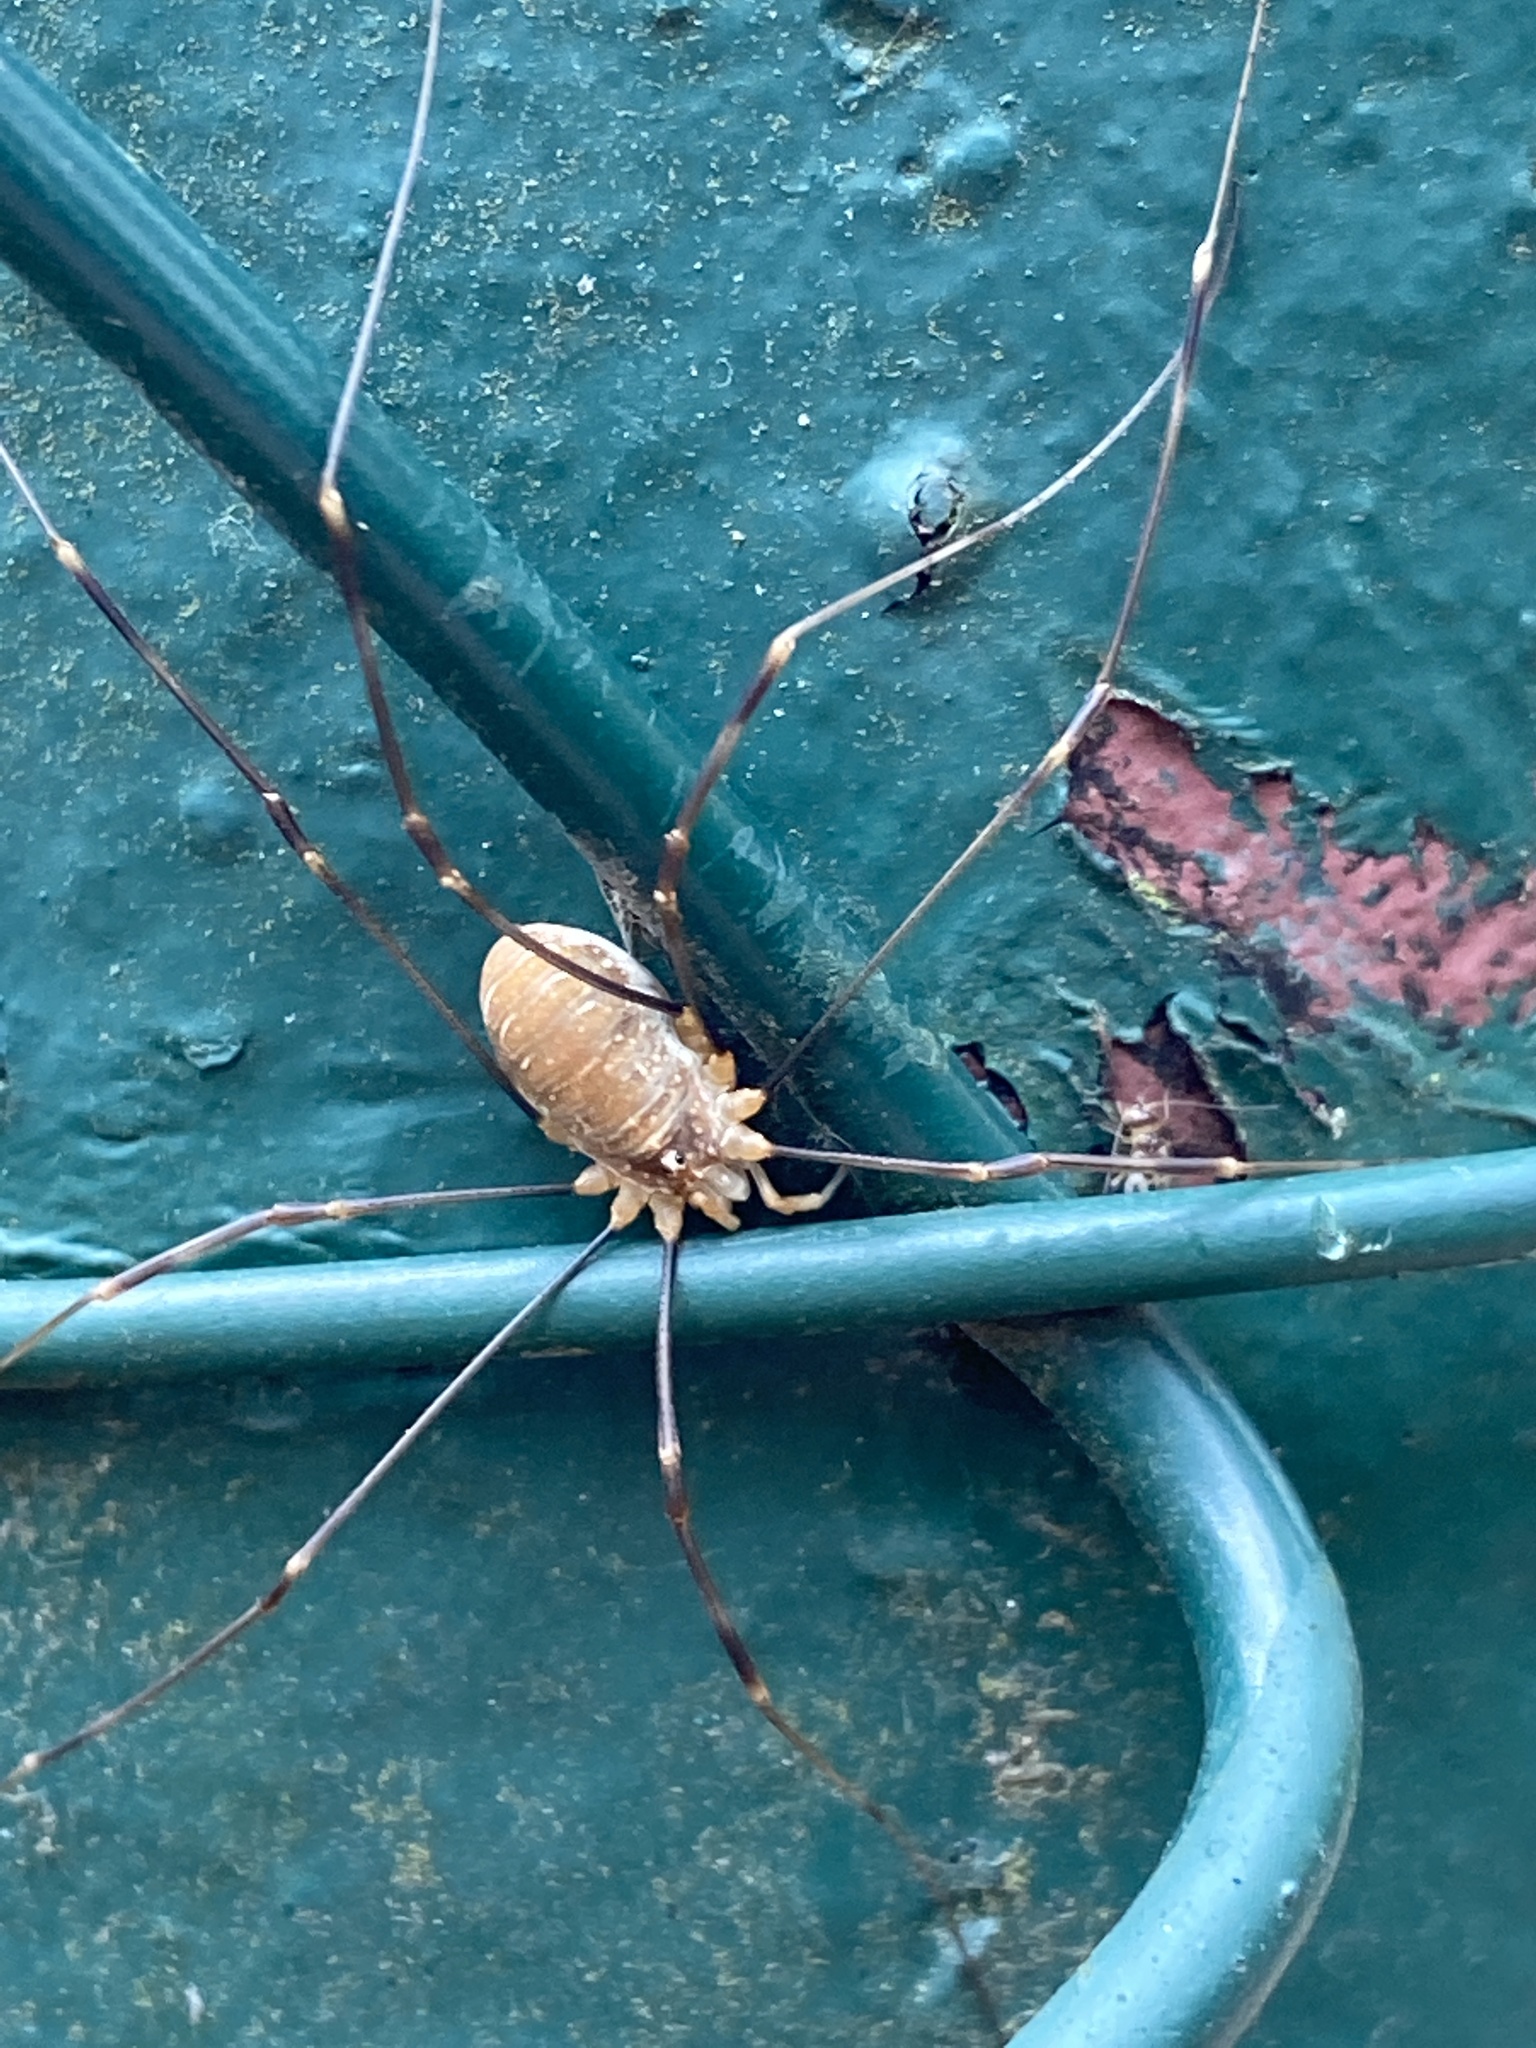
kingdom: Animalia
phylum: Arthropoda
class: Arachnida
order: Opiliones
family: Phalangiidae
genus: Opilio
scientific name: Opilio canestrinii
